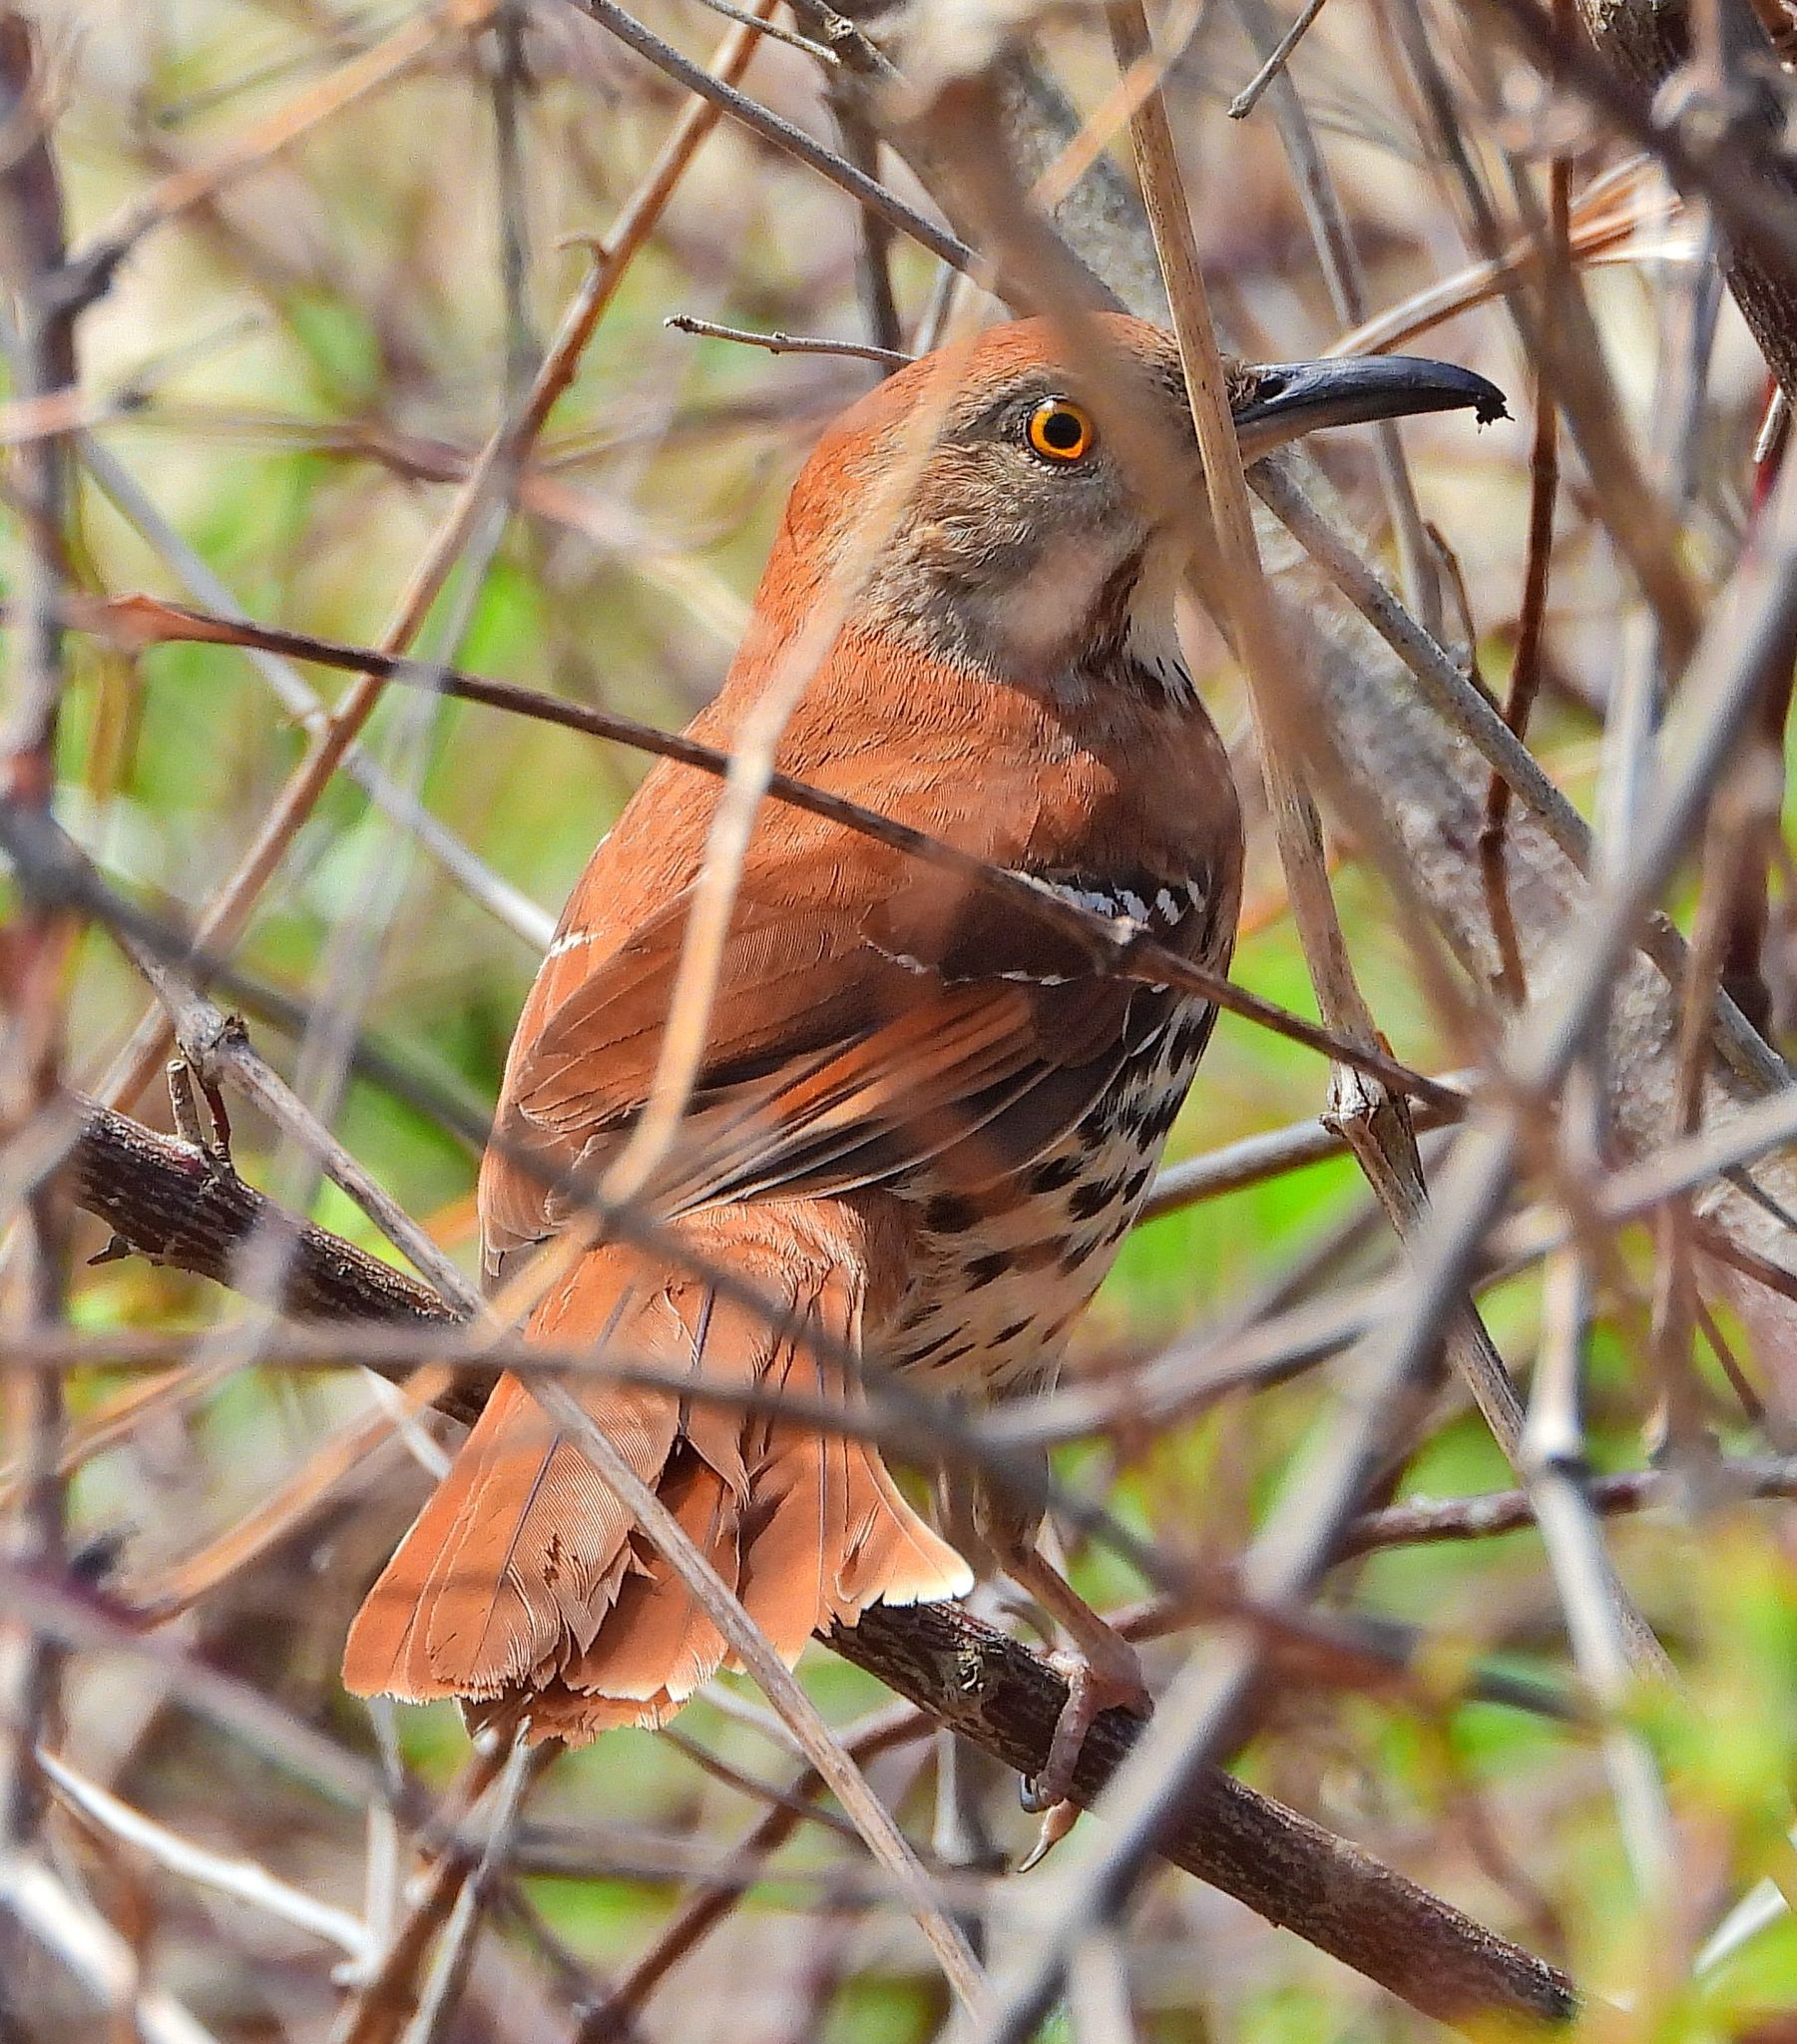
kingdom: Animalia
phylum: Chordata
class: Aves
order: Passeriformes
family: Mimidae
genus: Toxostoma
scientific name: Toxostoma rufum
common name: Brown thrasher
